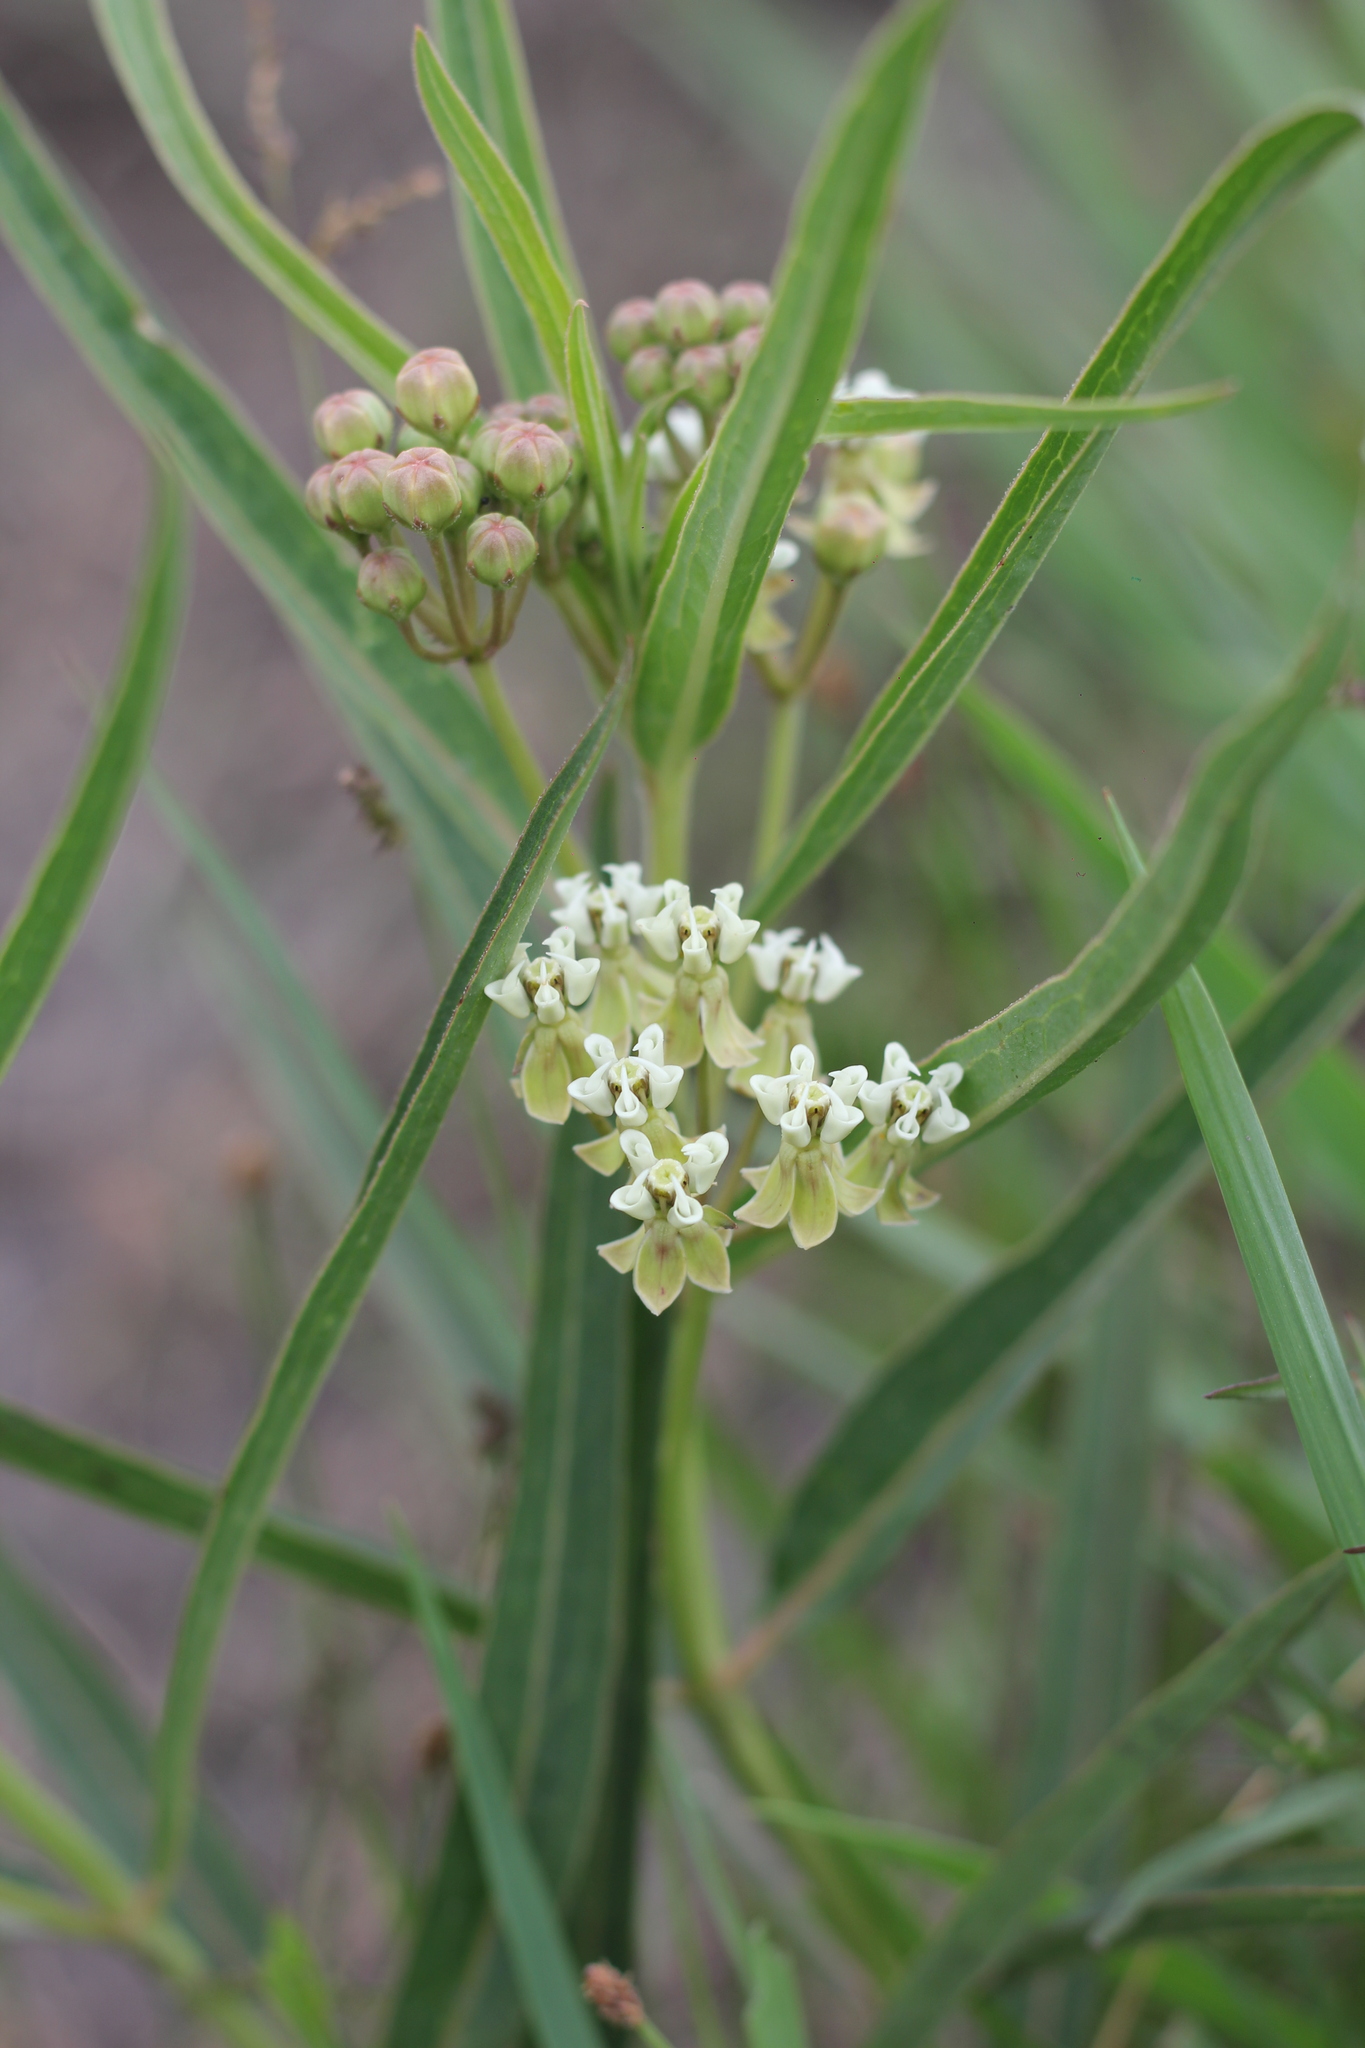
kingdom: Plantae
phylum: Tracheophyta
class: Magnoliopsida
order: Gentianales
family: Apocynaceae
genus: Asclepias
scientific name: Asclepias mellodora
